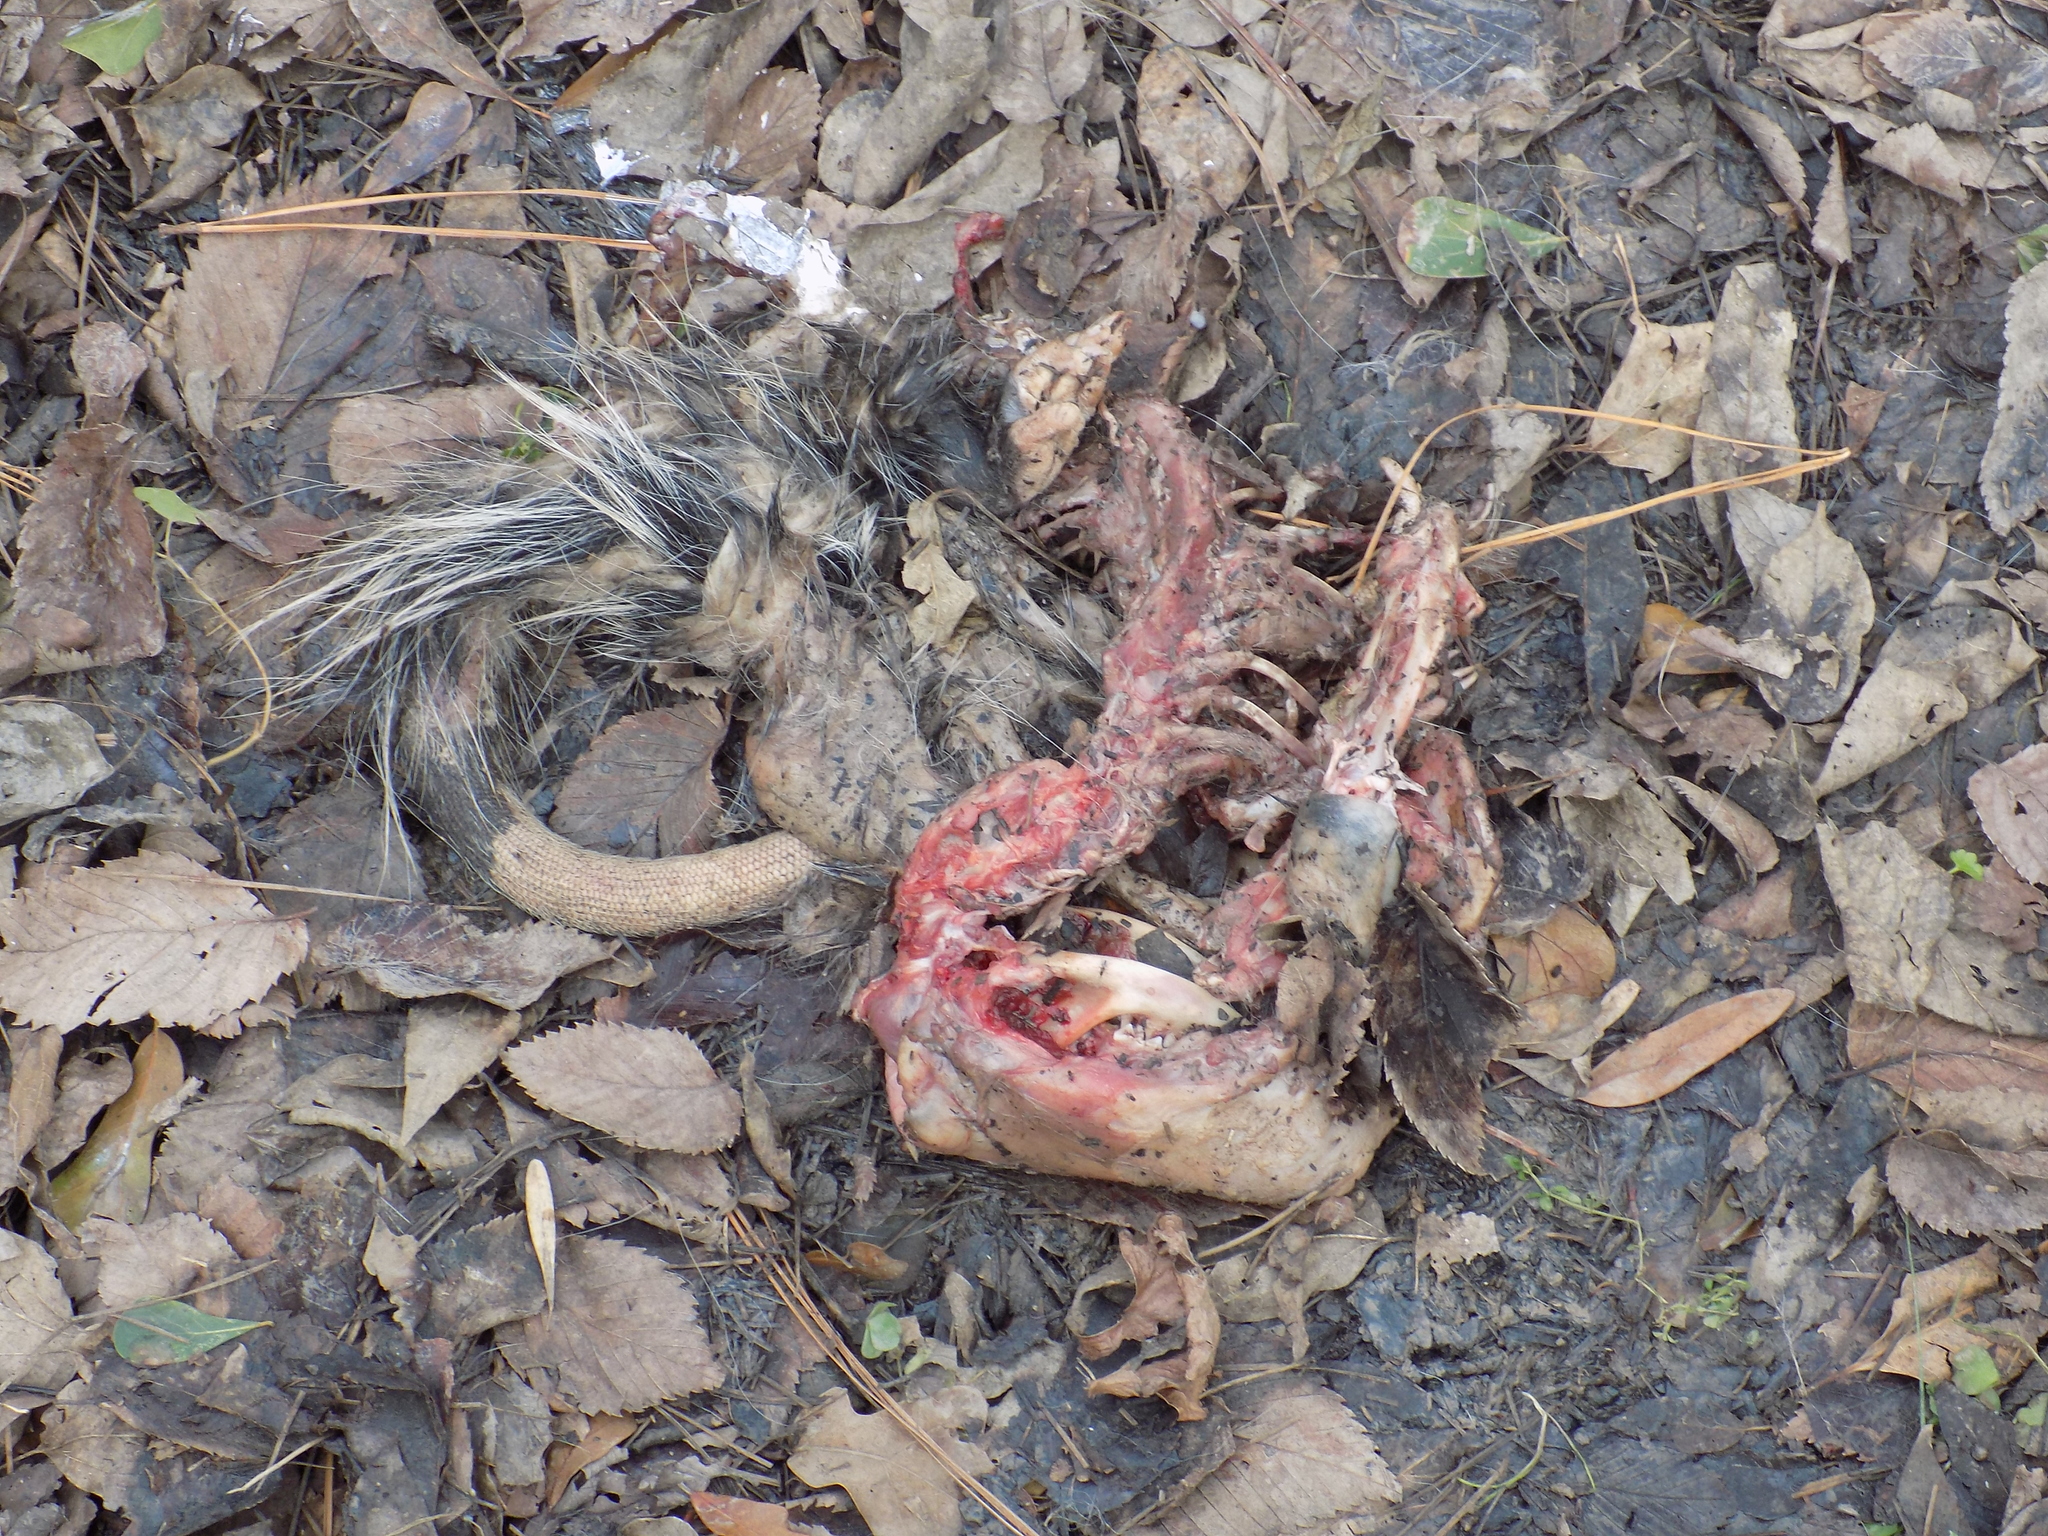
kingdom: Animalia
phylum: Chordata
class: Mammalia
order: Didelphimorphia
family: Didelphidae
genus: Didelphis
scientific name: Didelphis virginiana
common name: Virginia opossum
